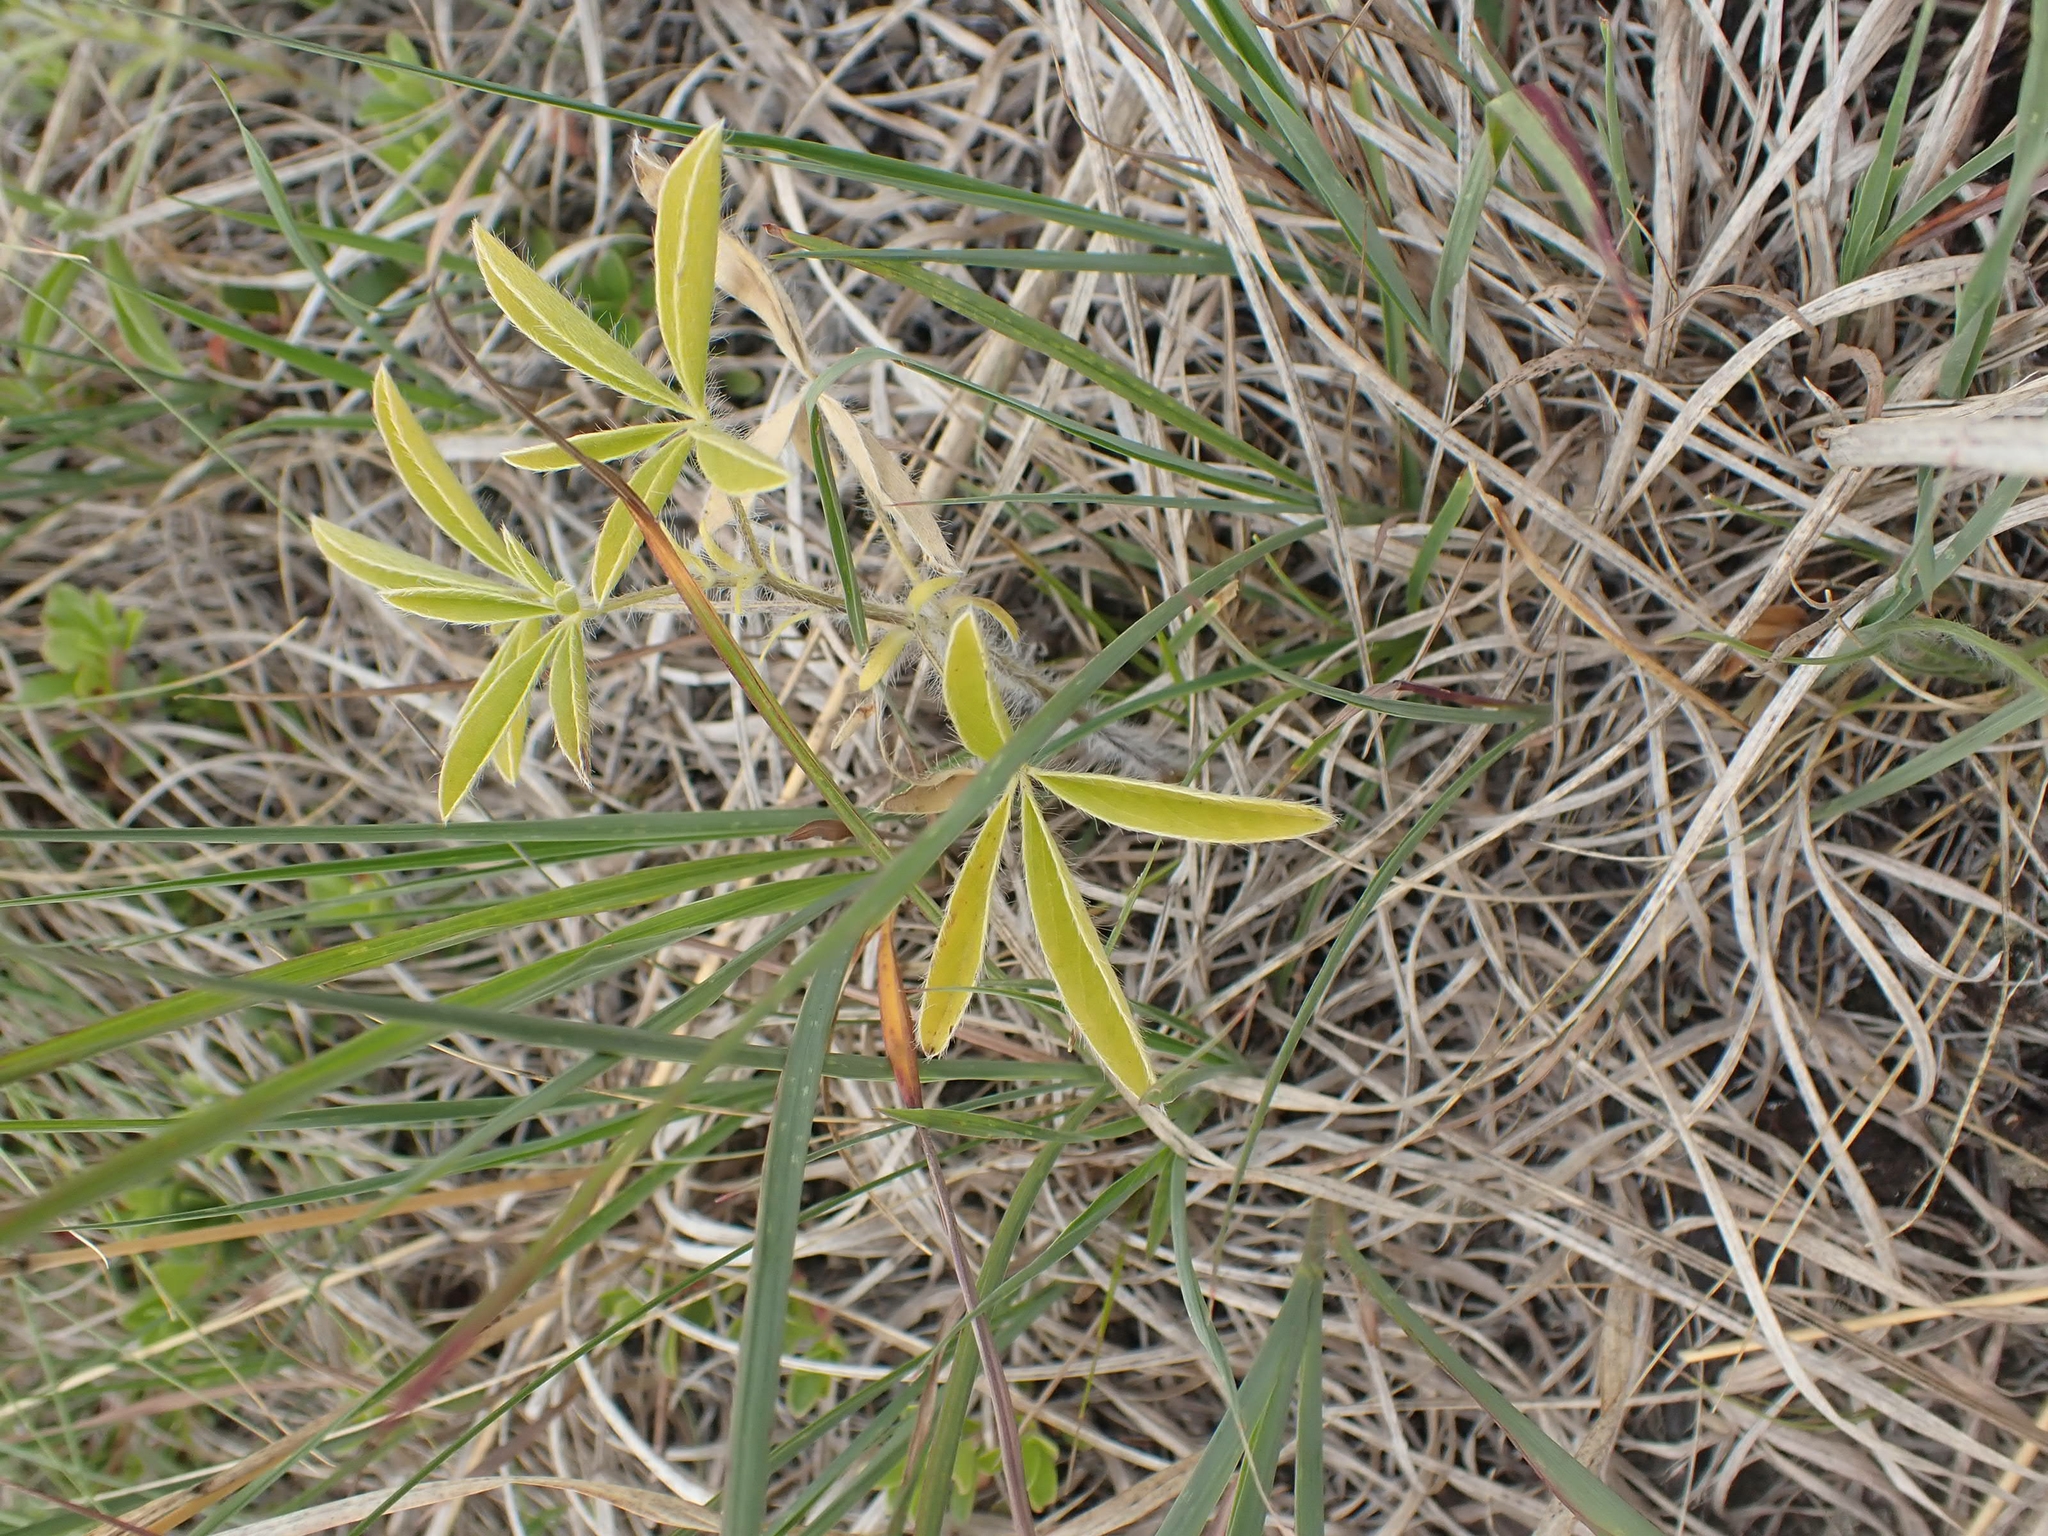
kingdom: Plantae
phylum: Tracheophyta
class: Magnoliopsida
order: Fabales
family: Fabaceae
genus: Pediomelum
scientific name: Pediomelum esculentum
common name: Indian-turnip
